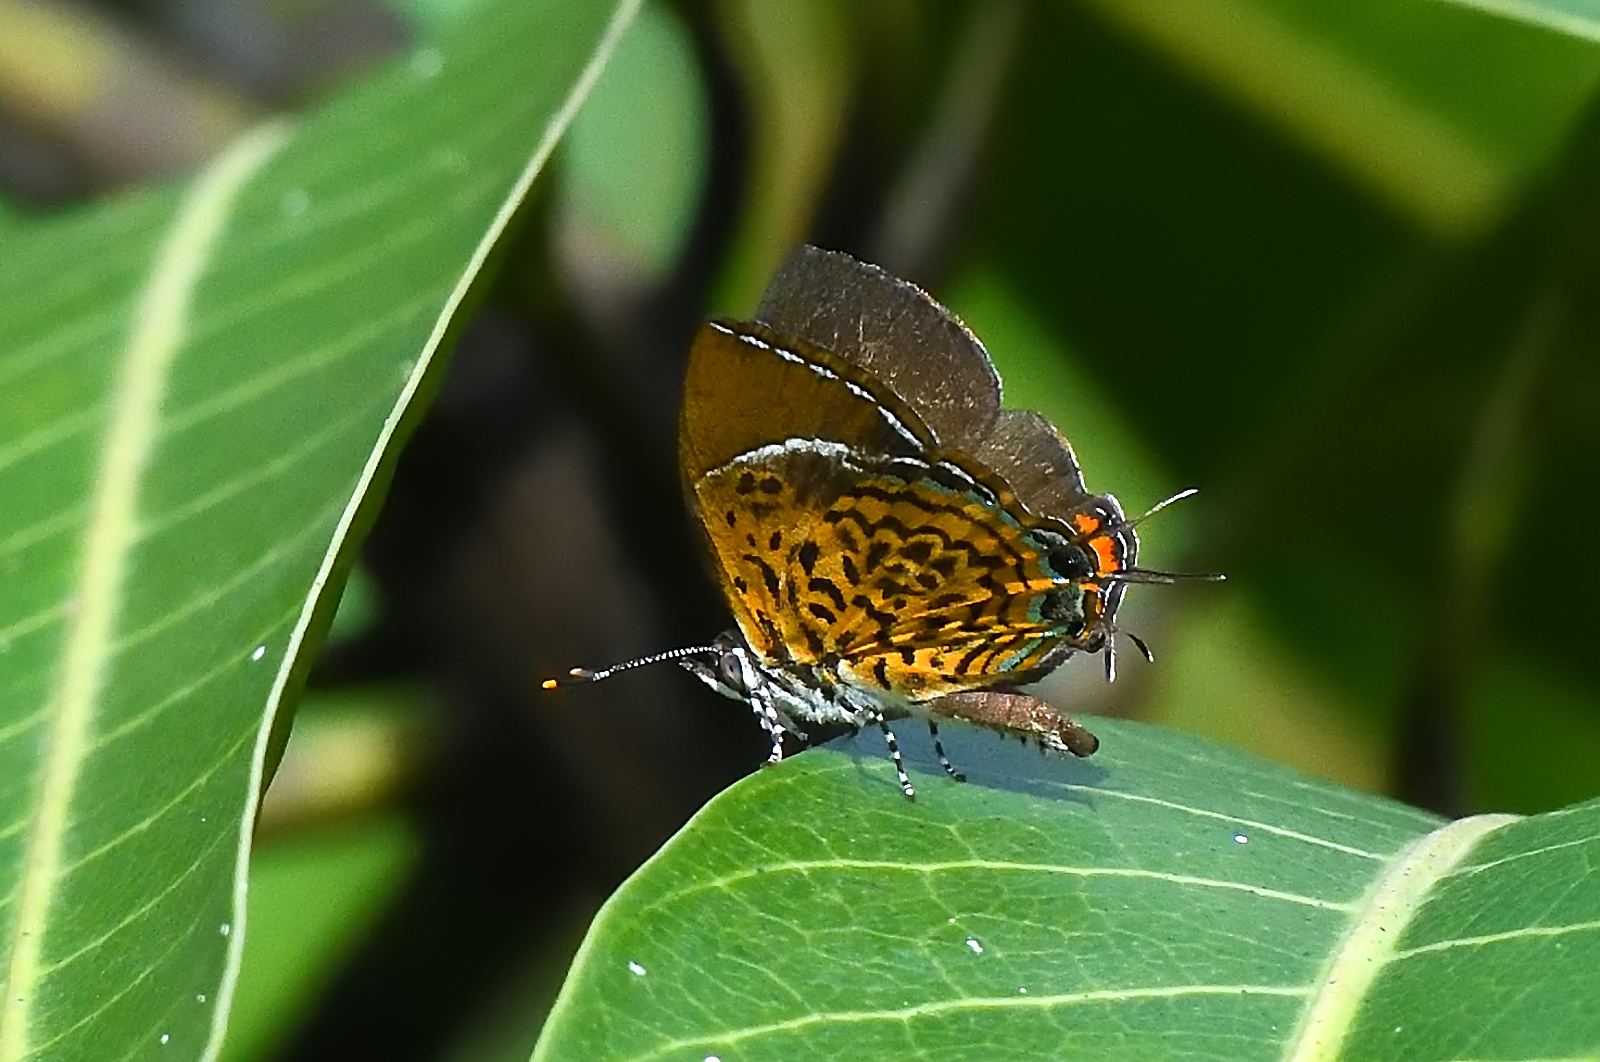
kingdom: Animalia
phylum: Arthropoda
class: Insecta
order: Lepidoptera
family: Lycaenidae
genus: Rathinda
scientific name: Rathinda amor
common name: Monkey puzzle
